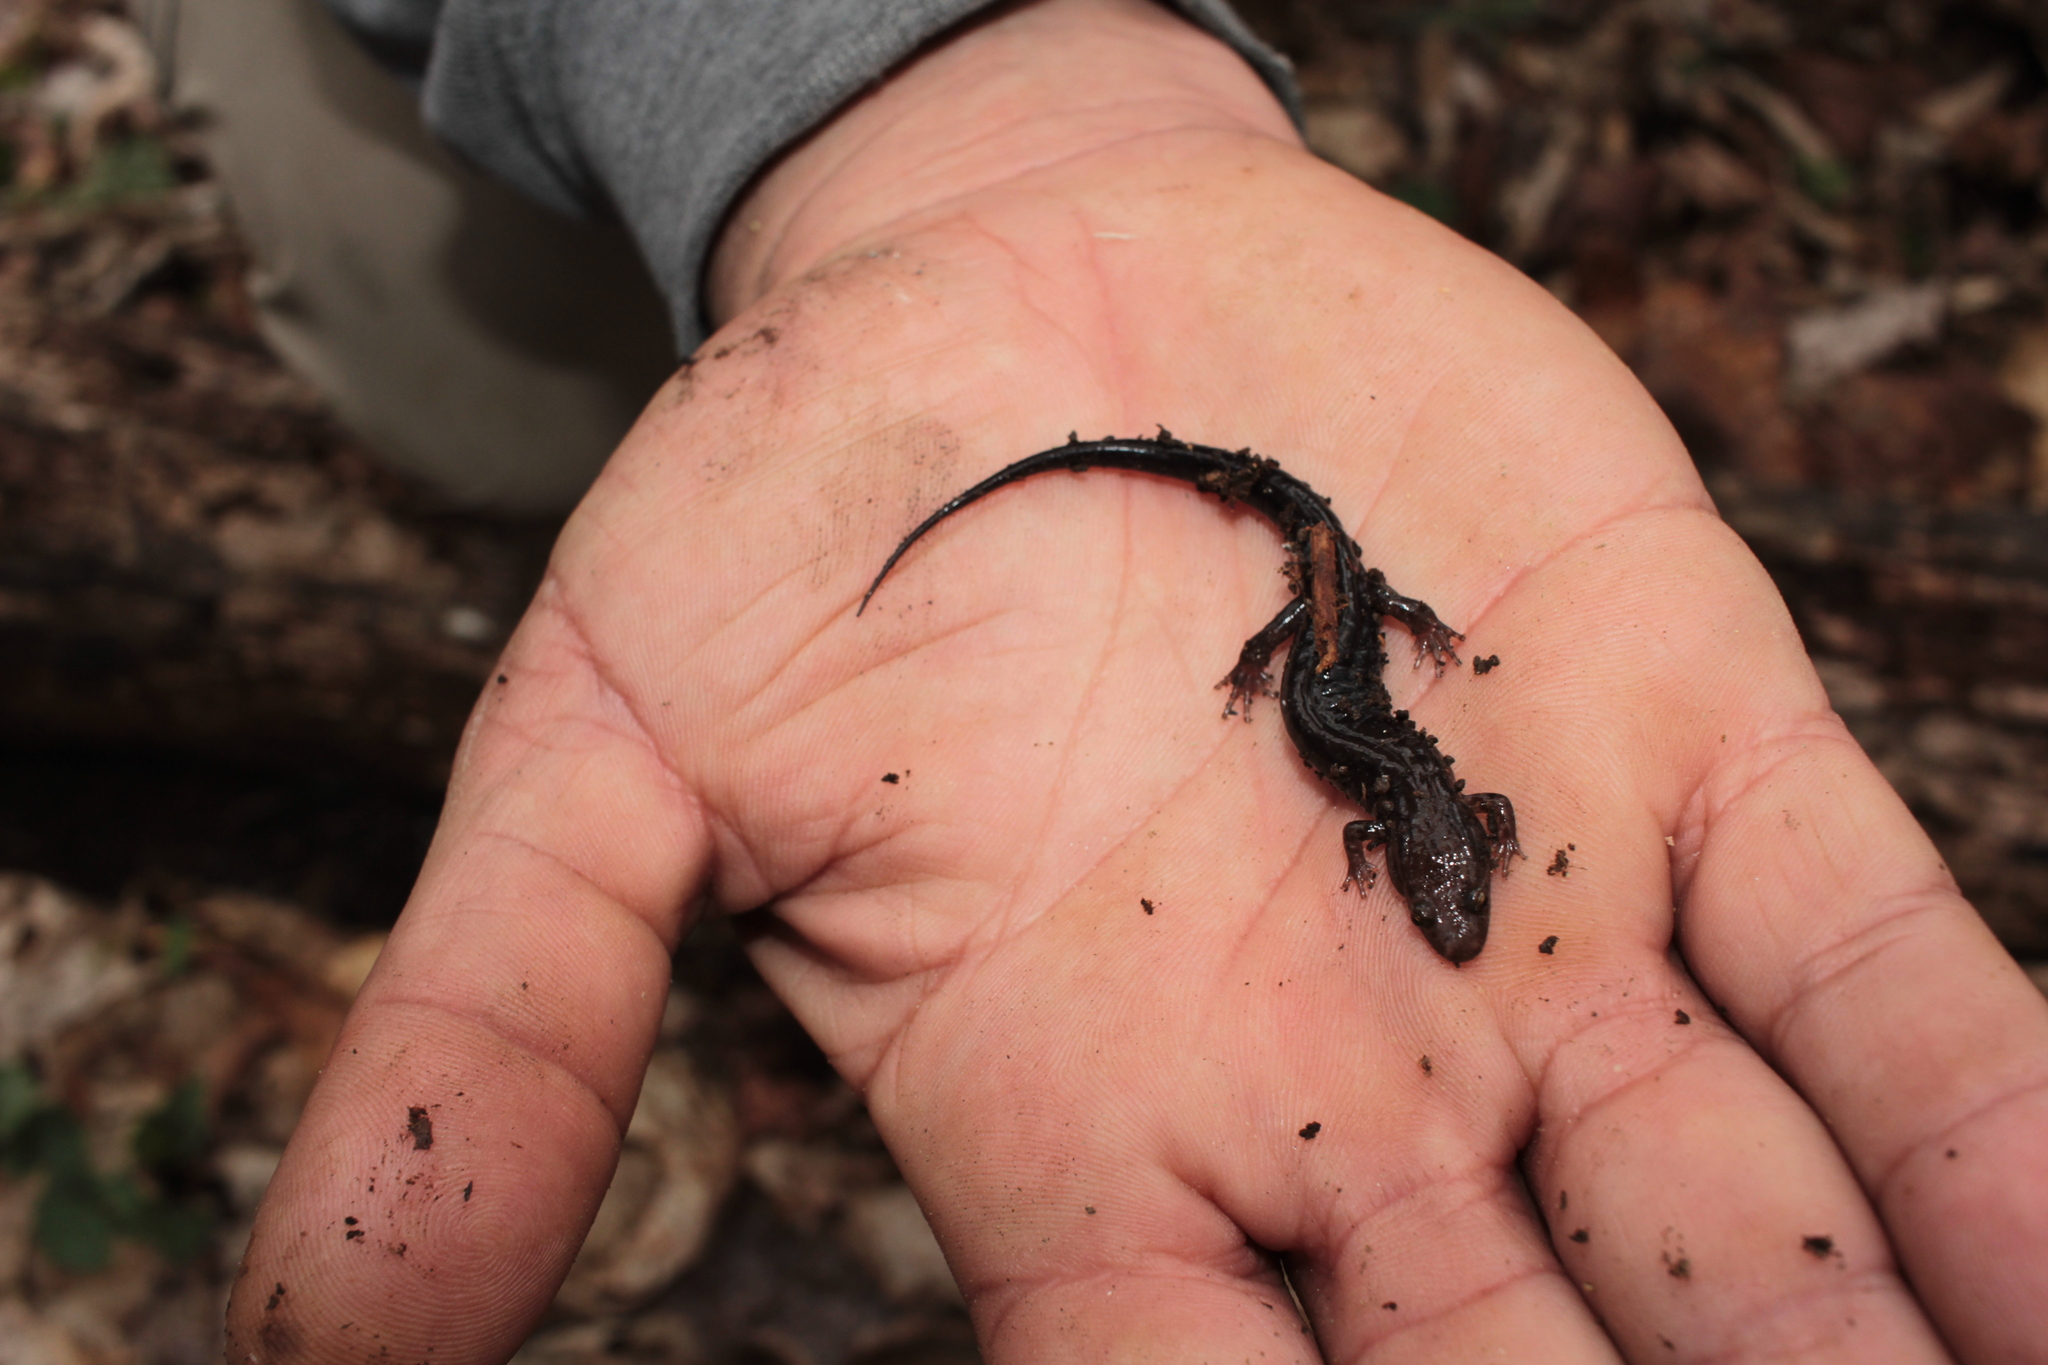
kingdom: Animalia
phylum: Chordata
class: Amphibia
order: Caudata
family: Plethodontidae
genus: Desmognathus
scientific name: Desmognathus orestes
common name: Blue ridge dusky salamander
